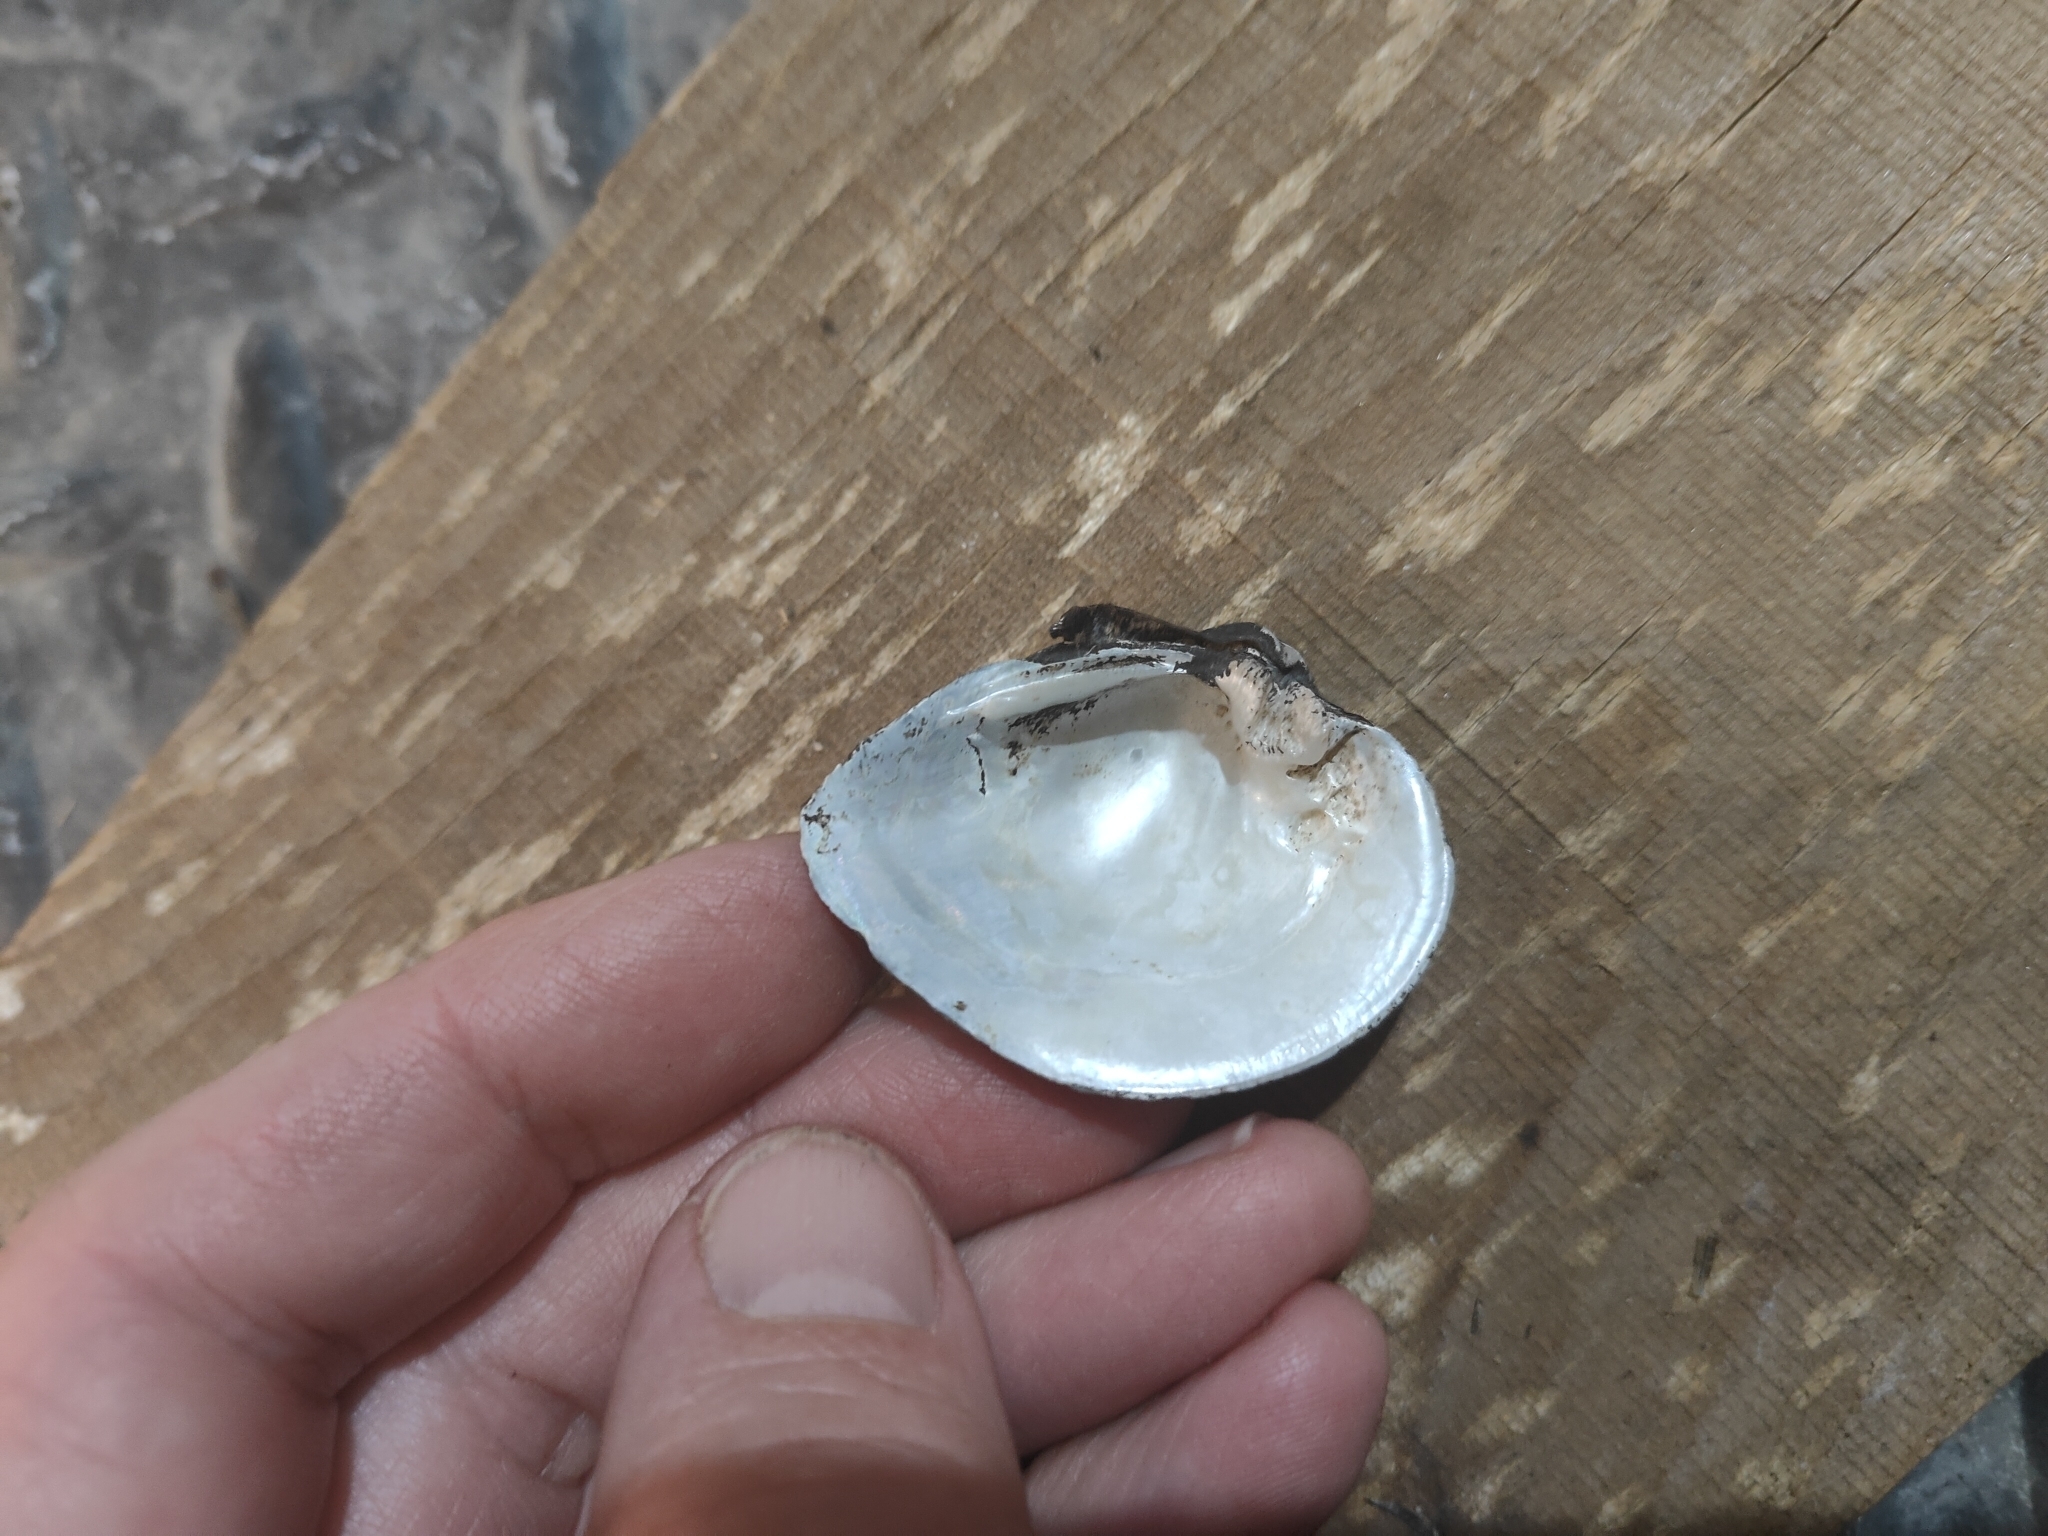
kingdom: Animalia
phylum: Mollusca
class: Bivalvia
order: Unionida
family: Unionidae
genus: Truncilla
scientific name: Truncilla truncata
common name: Deertoe
